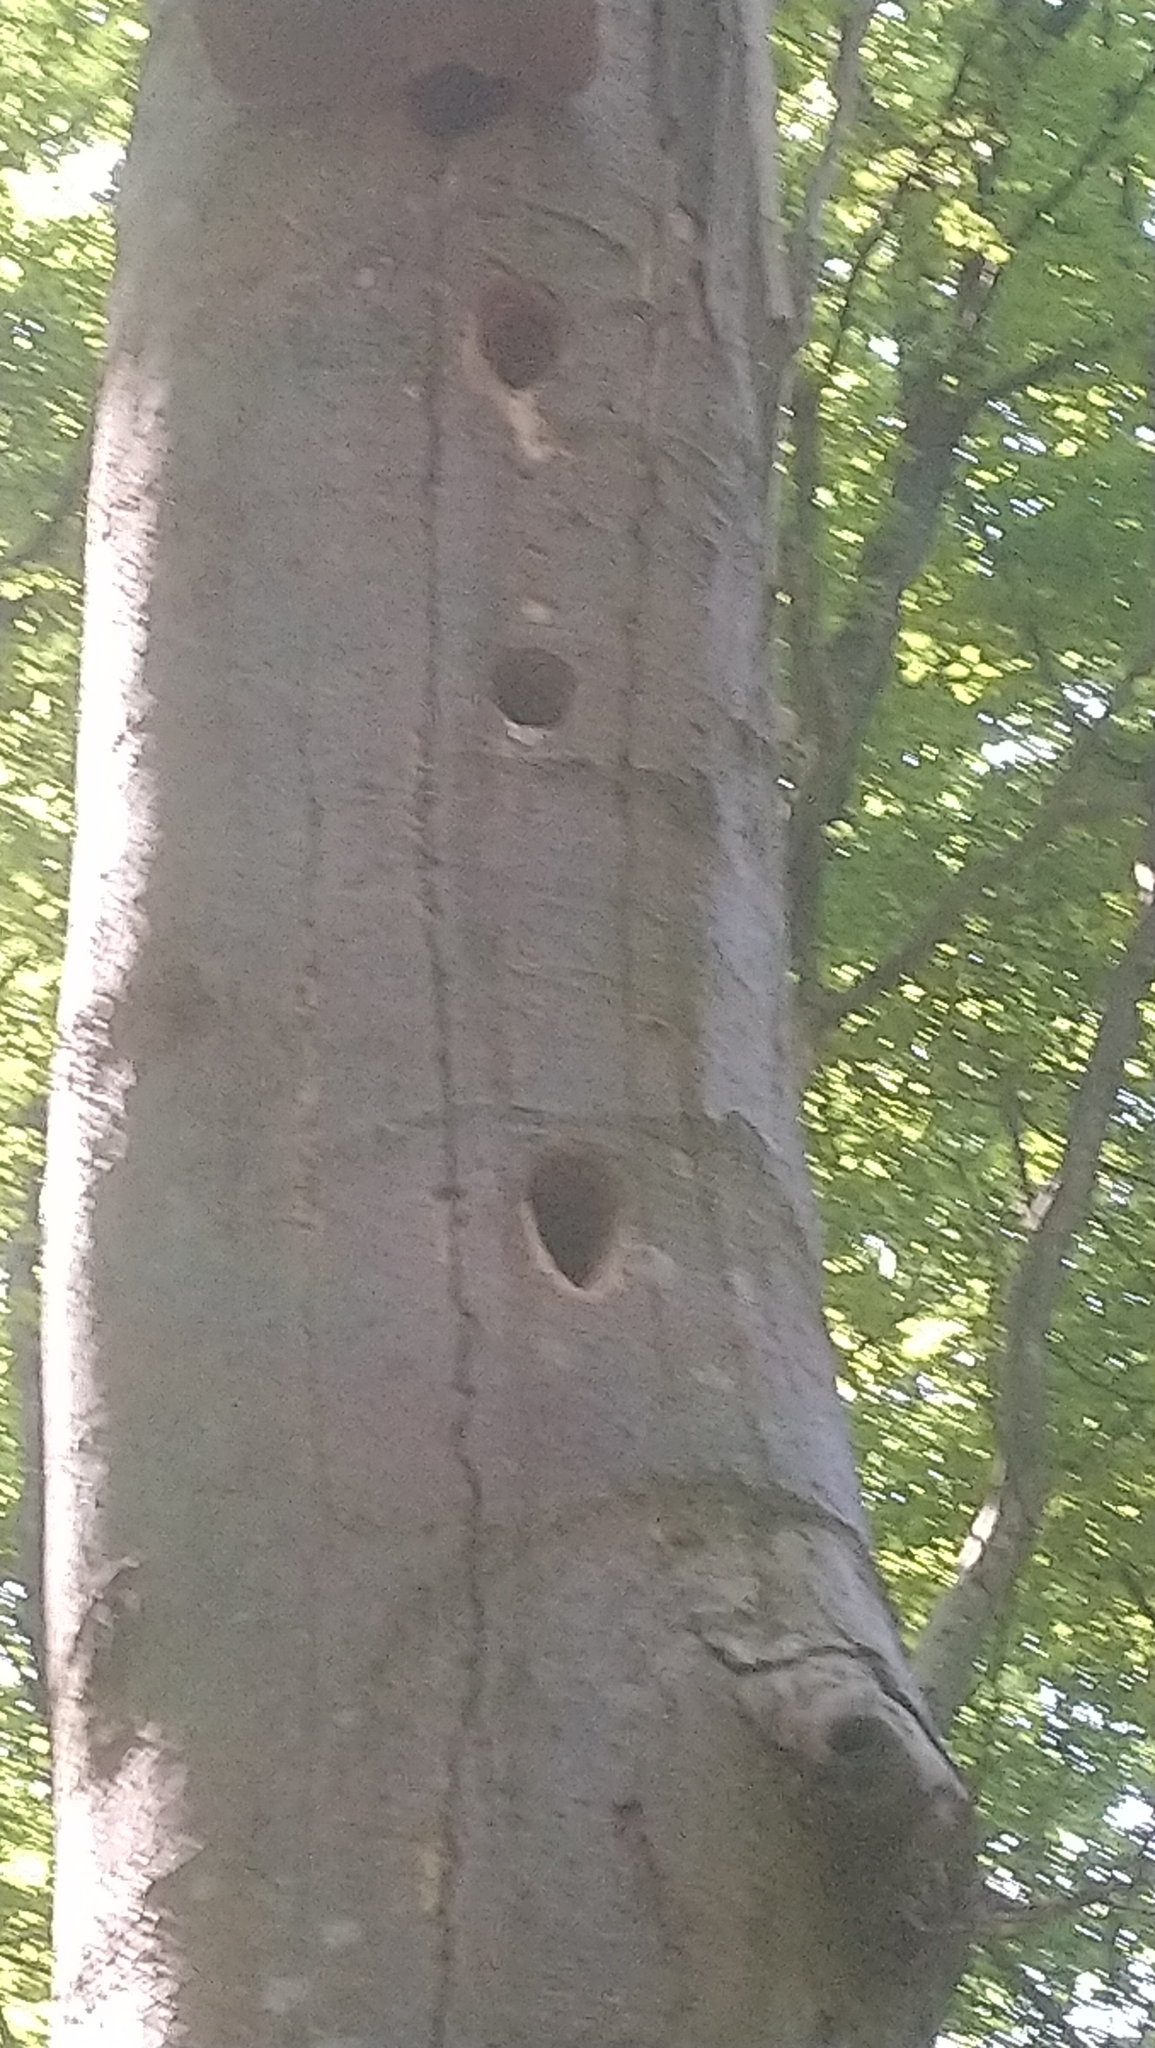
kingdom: Animalia
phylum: Chordata
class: Aves
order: Piciformes
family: Picidae
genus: Dendrocopos
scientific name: Dendrocopos major
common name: Great spotted woodpecker
